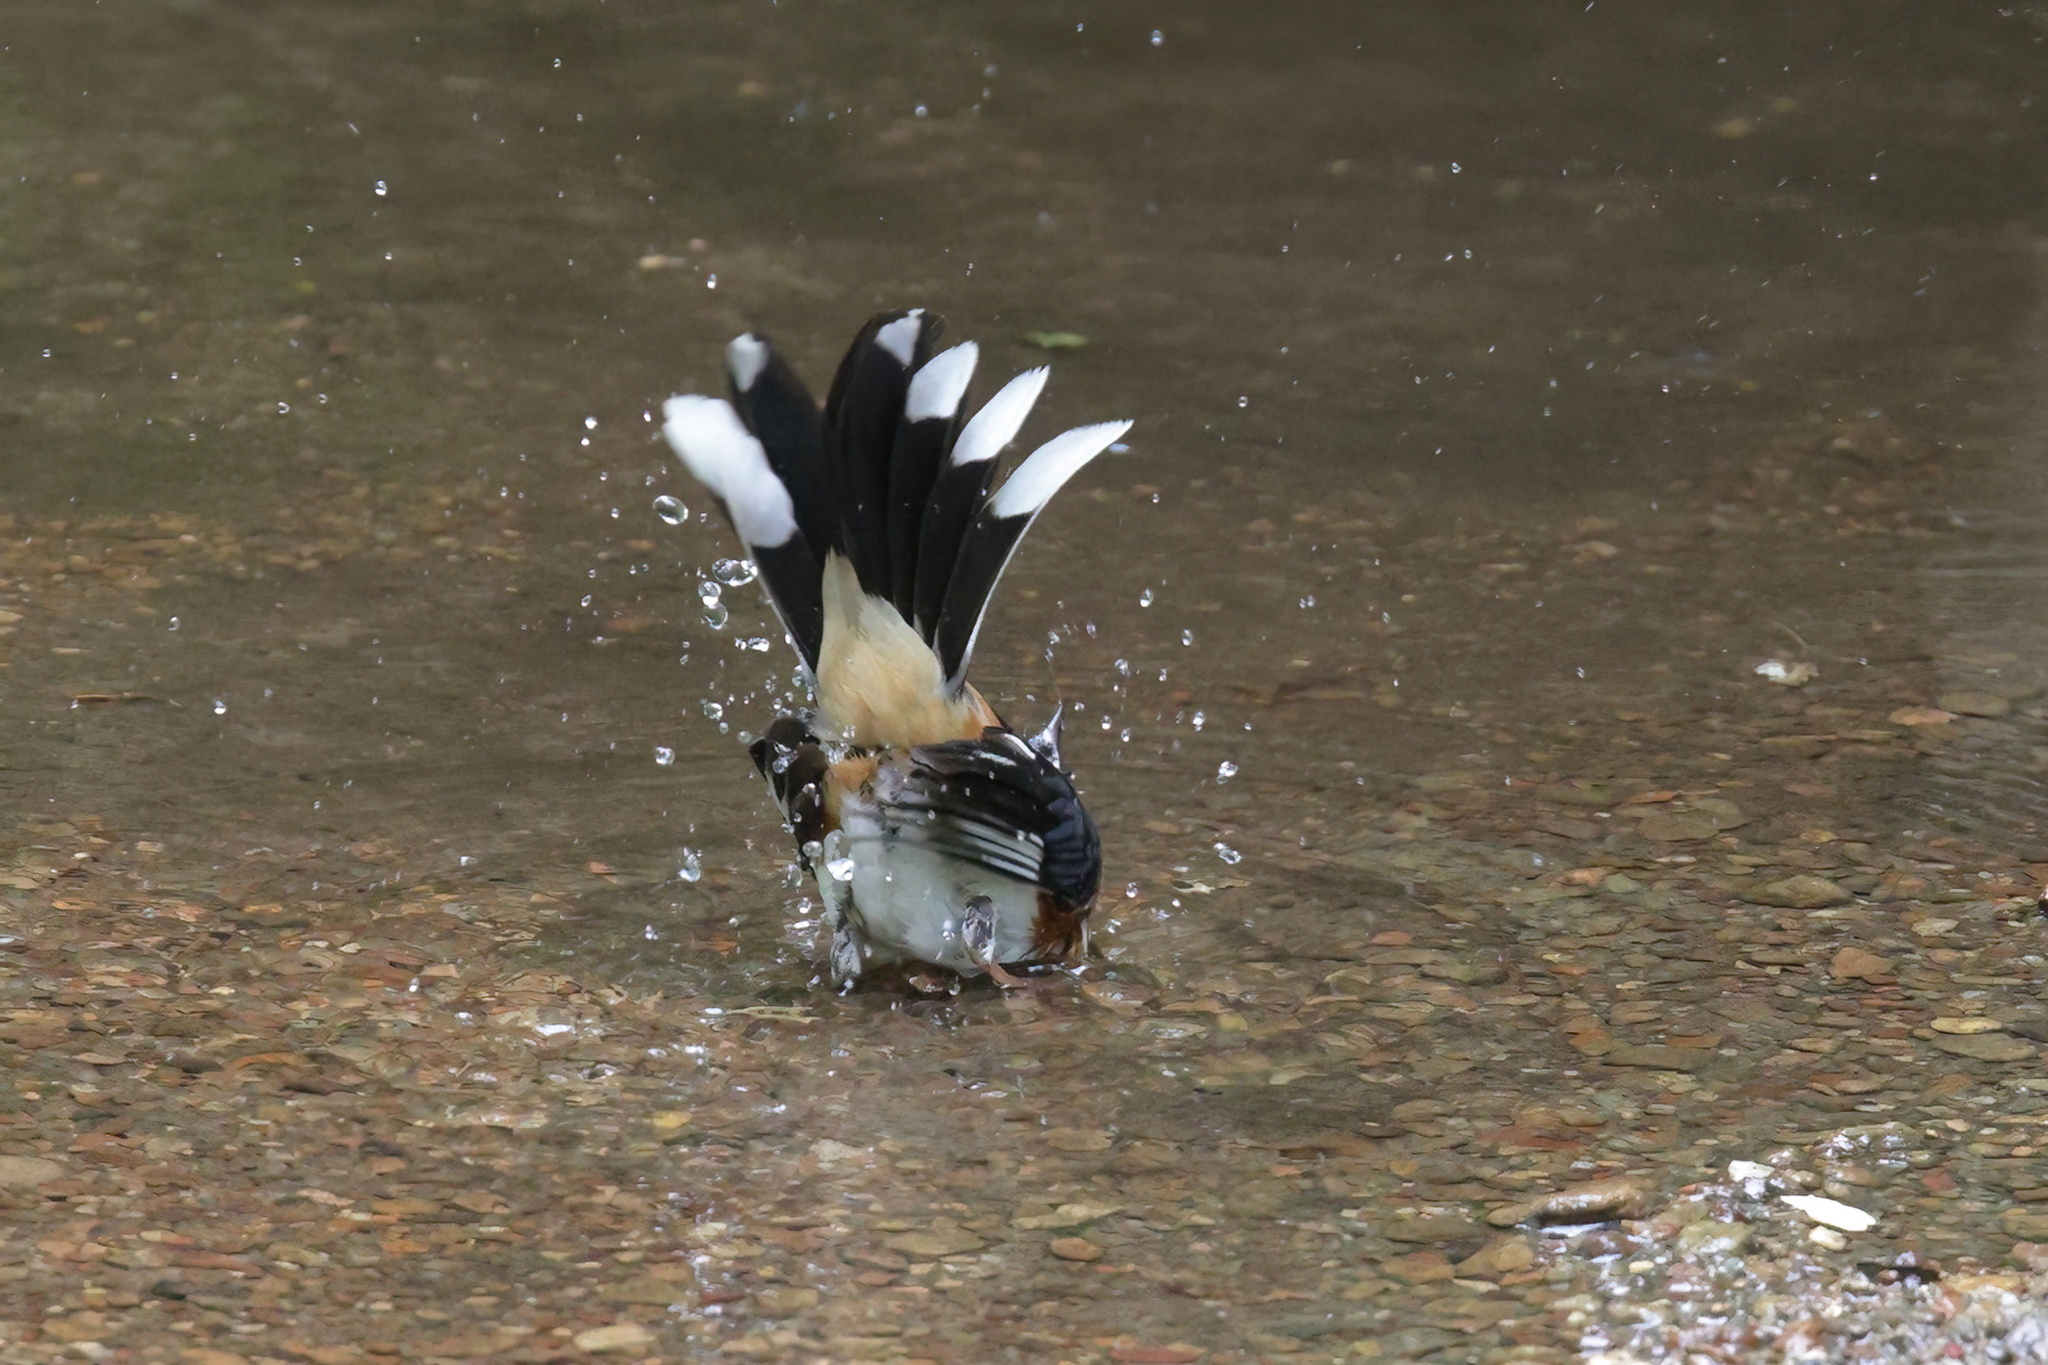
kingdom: Animalia
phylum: Chordata
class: Aves
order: Passeriformes
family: Passerellidae
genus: Pipilo
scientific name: Pipilo erythrophthalmus
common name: Eastern towhee
